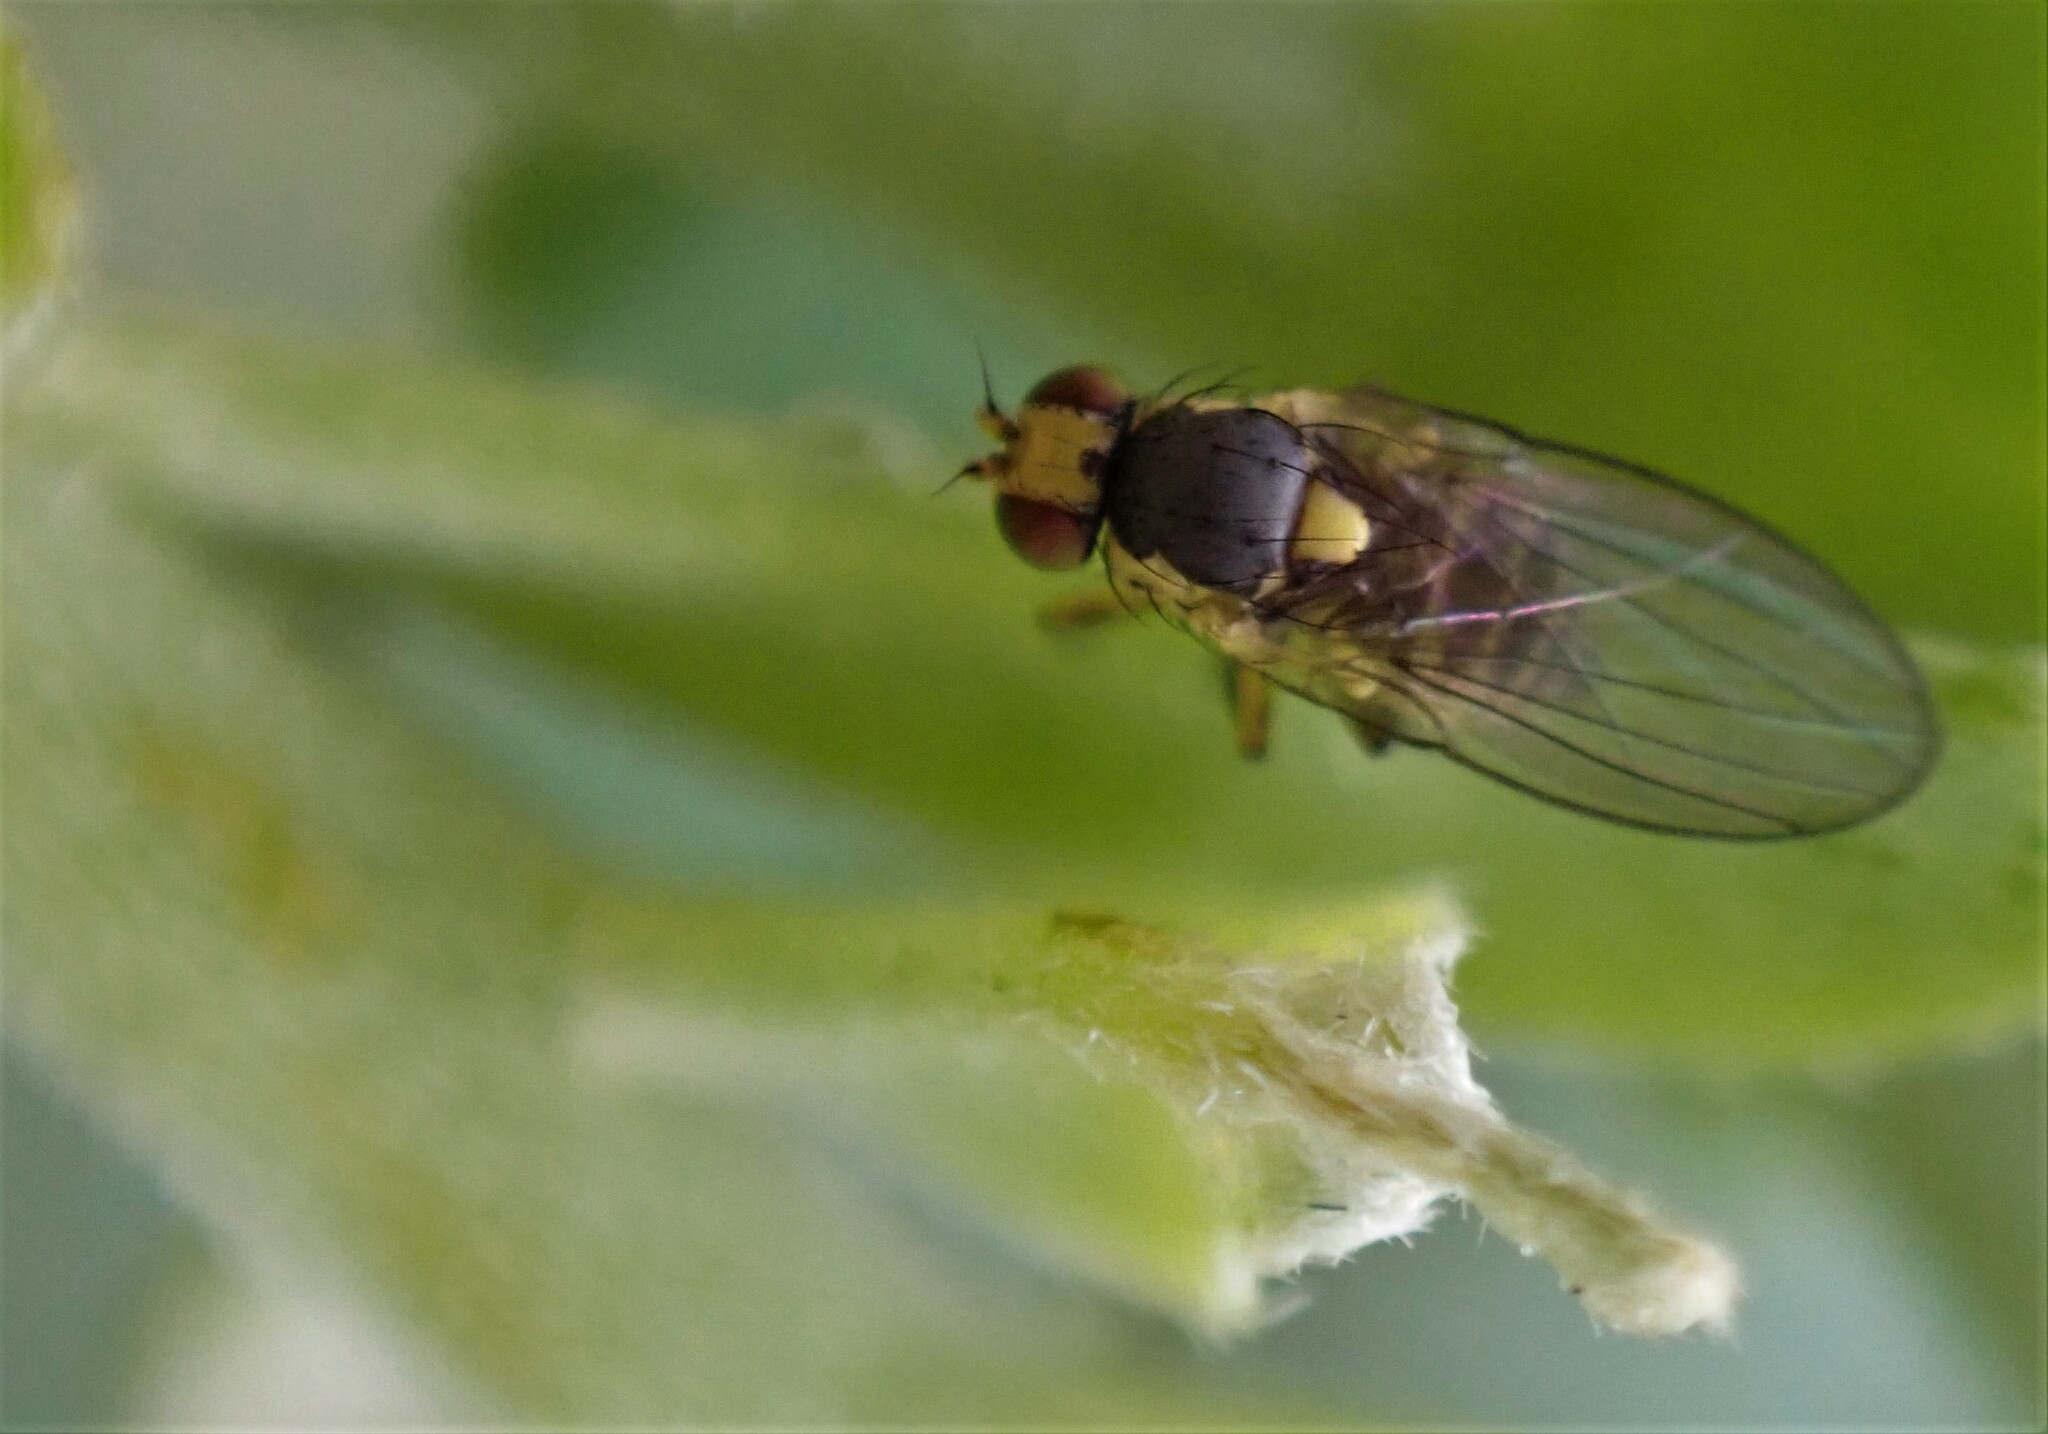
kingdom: Animalia
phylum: Arthropoda
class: Insecta
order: Diptera
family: Agromyzidae
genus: Liriomyza
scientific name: Liriomyza clianthi
